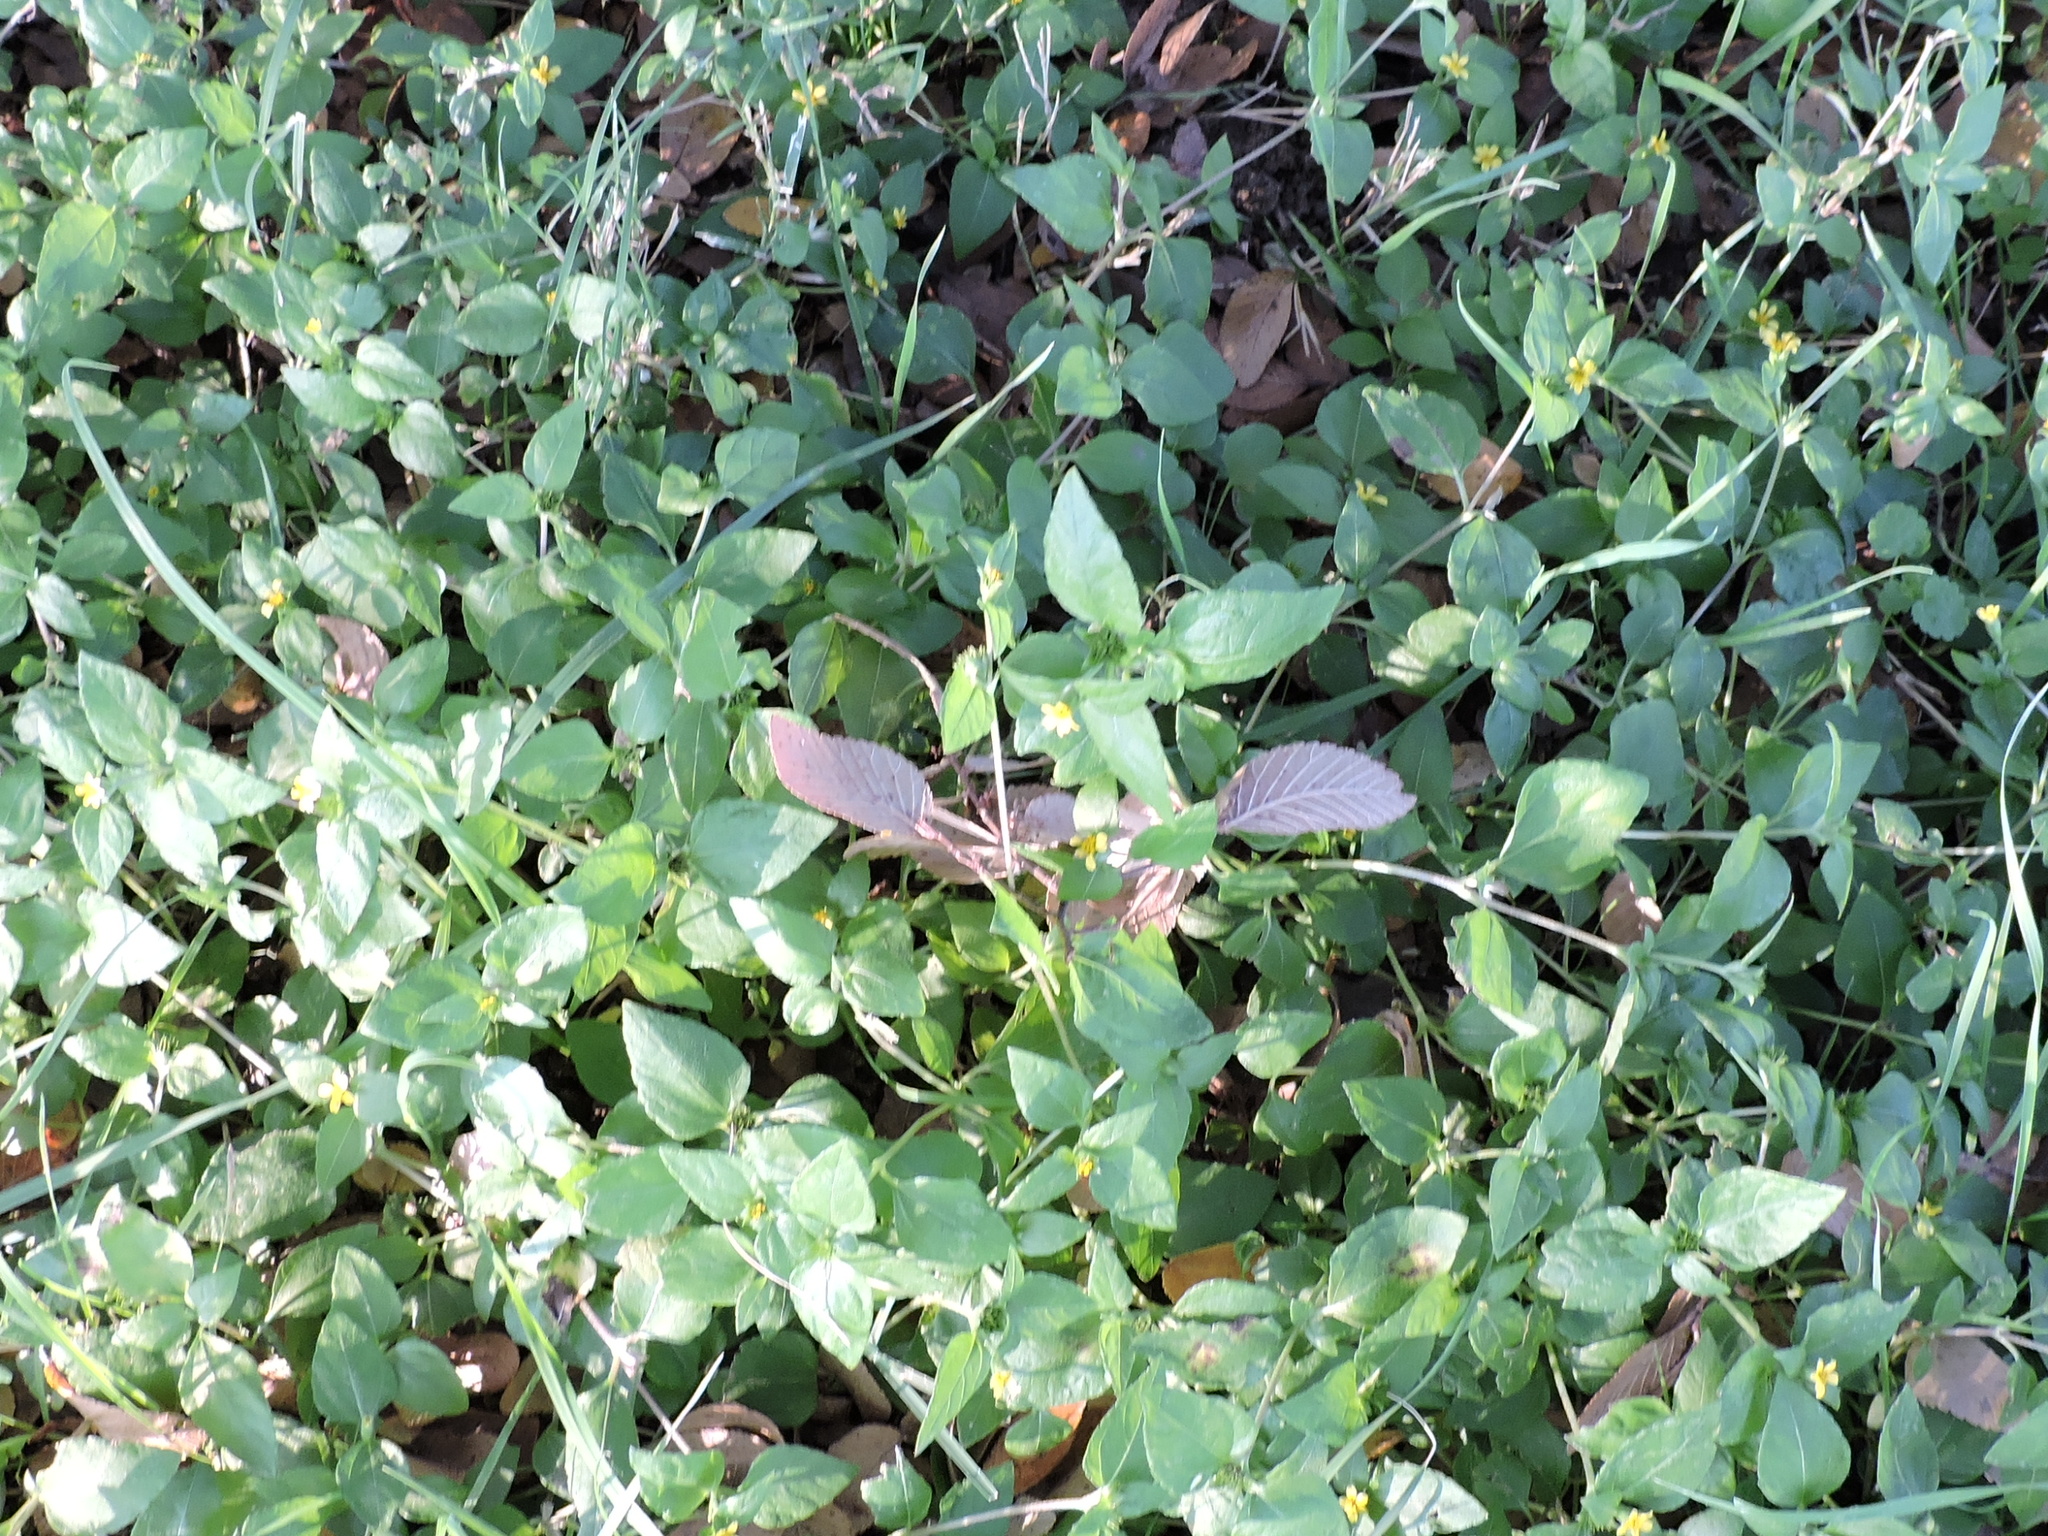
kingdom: Plantae
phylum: Tracheophyta
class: Magnoliopsida
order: Asterales
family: Asteraceae
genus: Calyptocarpus
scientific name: Calyptocarpus vialis
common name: Straggler daisy
